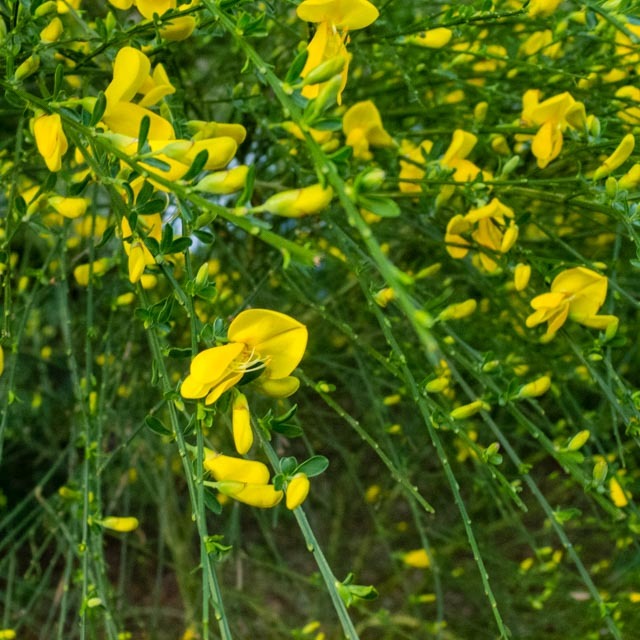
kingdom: Plantae
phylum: Tracheophyta
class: Magnoliopsida
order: Fabales
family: Fabaceae
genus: Cytisus
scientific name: Cytisus scoparius
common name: Scotch broom
